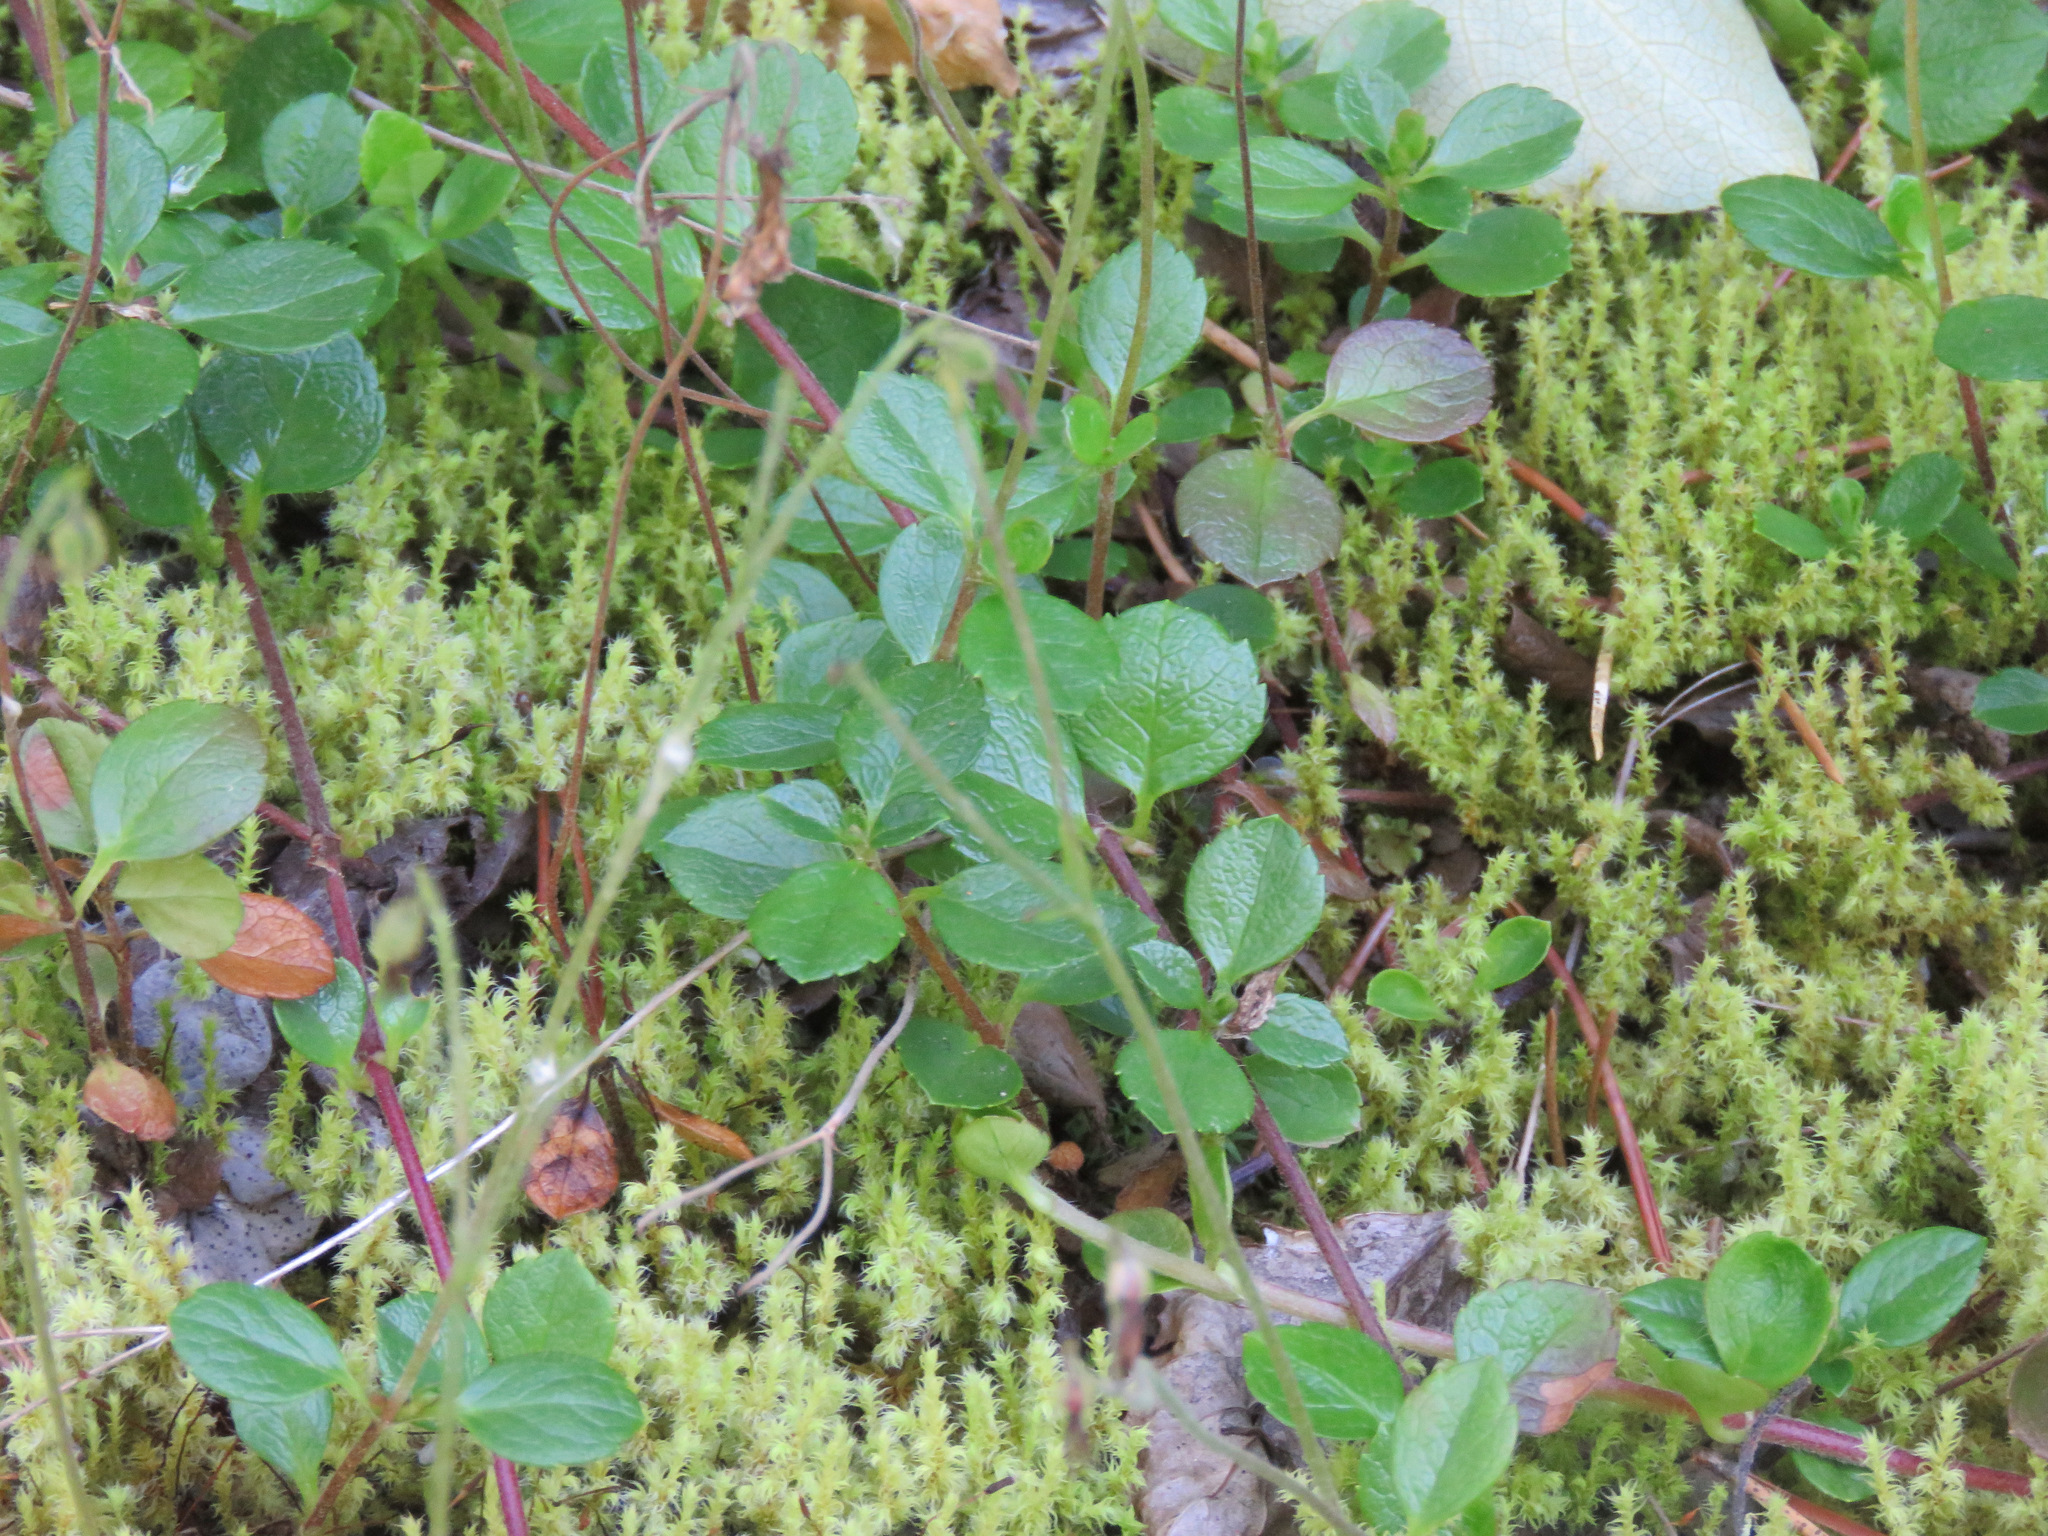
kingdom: Plantae
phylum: Tracheophyta
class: Magnoliopsida
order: Dipsacales
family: Caprifoliaceae
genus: Linnaea
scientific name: Linnaea borealis
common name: Twinflower
